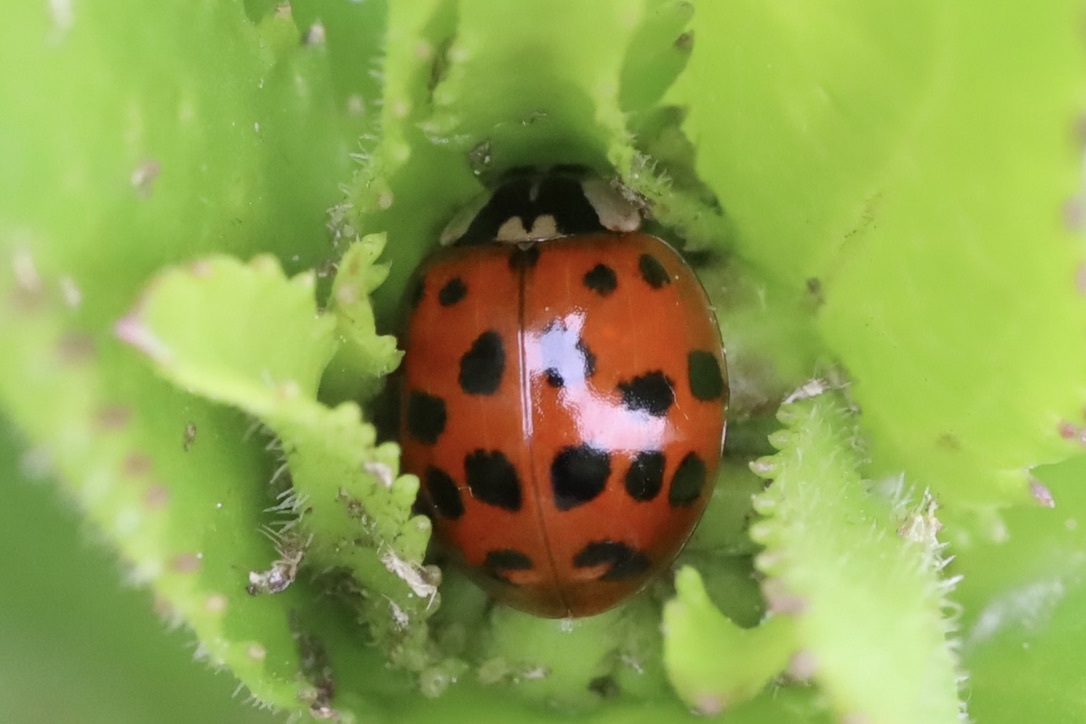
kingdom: Animalia
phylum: Arthropoda
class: Insecta
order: Coleoptera
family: Coccinellidae
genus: Harmonia
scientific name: Harmonia axyridis
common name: Harlequin ladybird
